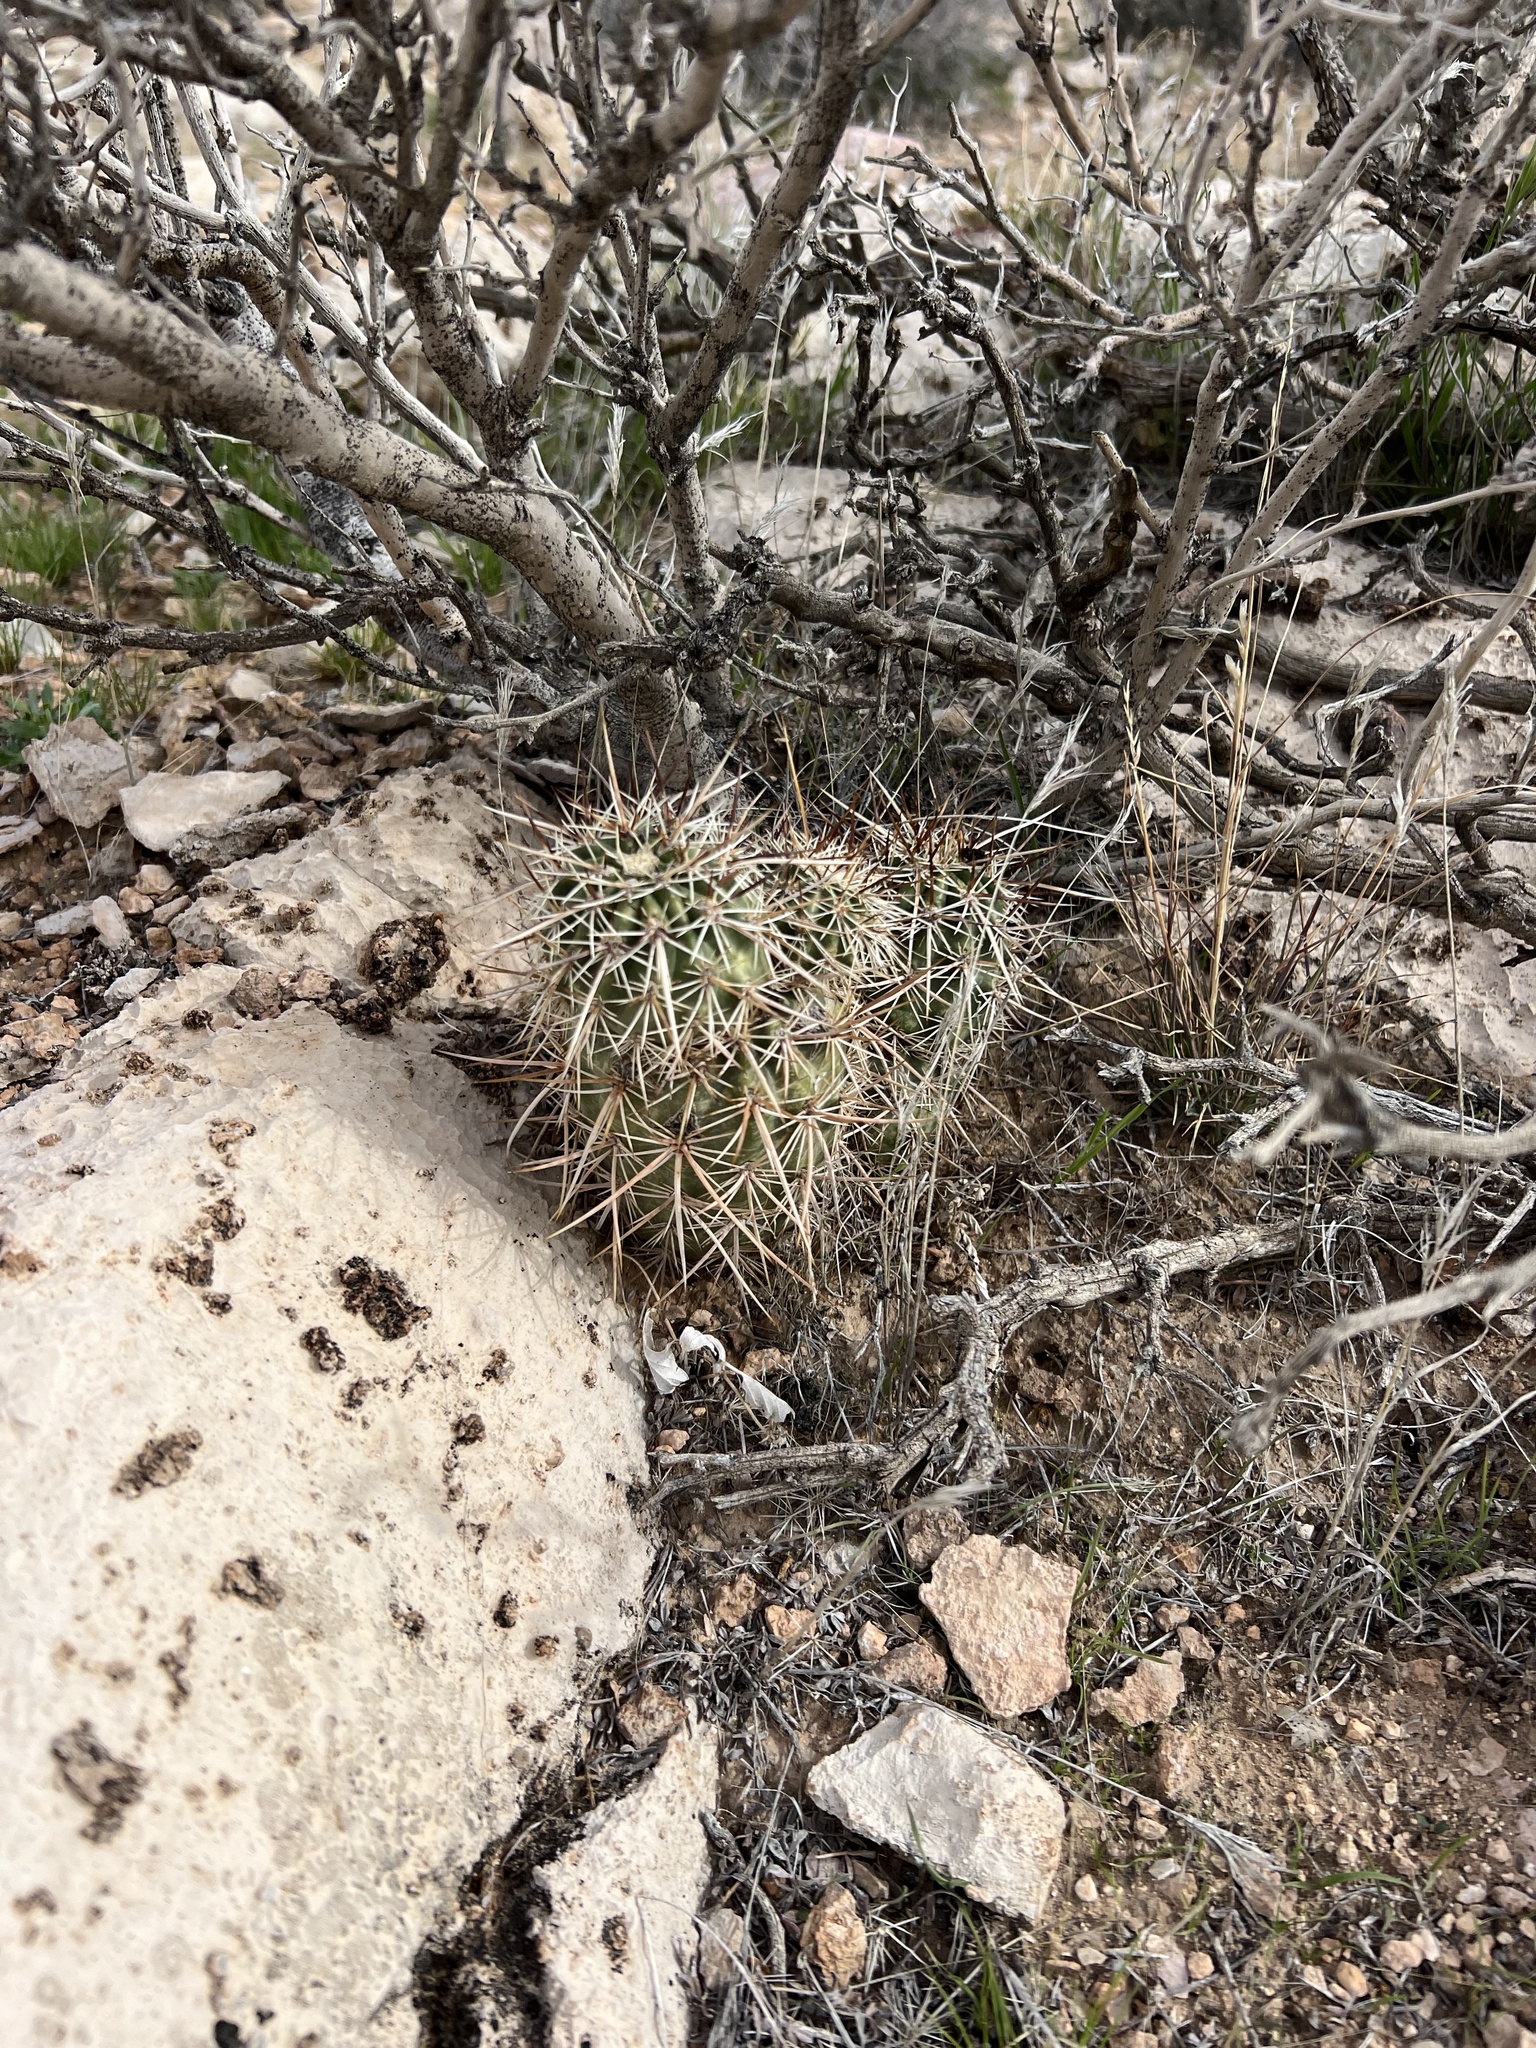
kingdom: Plantae
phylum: Tracheophyta
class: Magnoliopsida
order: Caryophyllales
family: Cactaceae
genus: Echinocereus
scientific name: Echinocereus engelmannii
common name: Engelmann's hedgehog cactus
